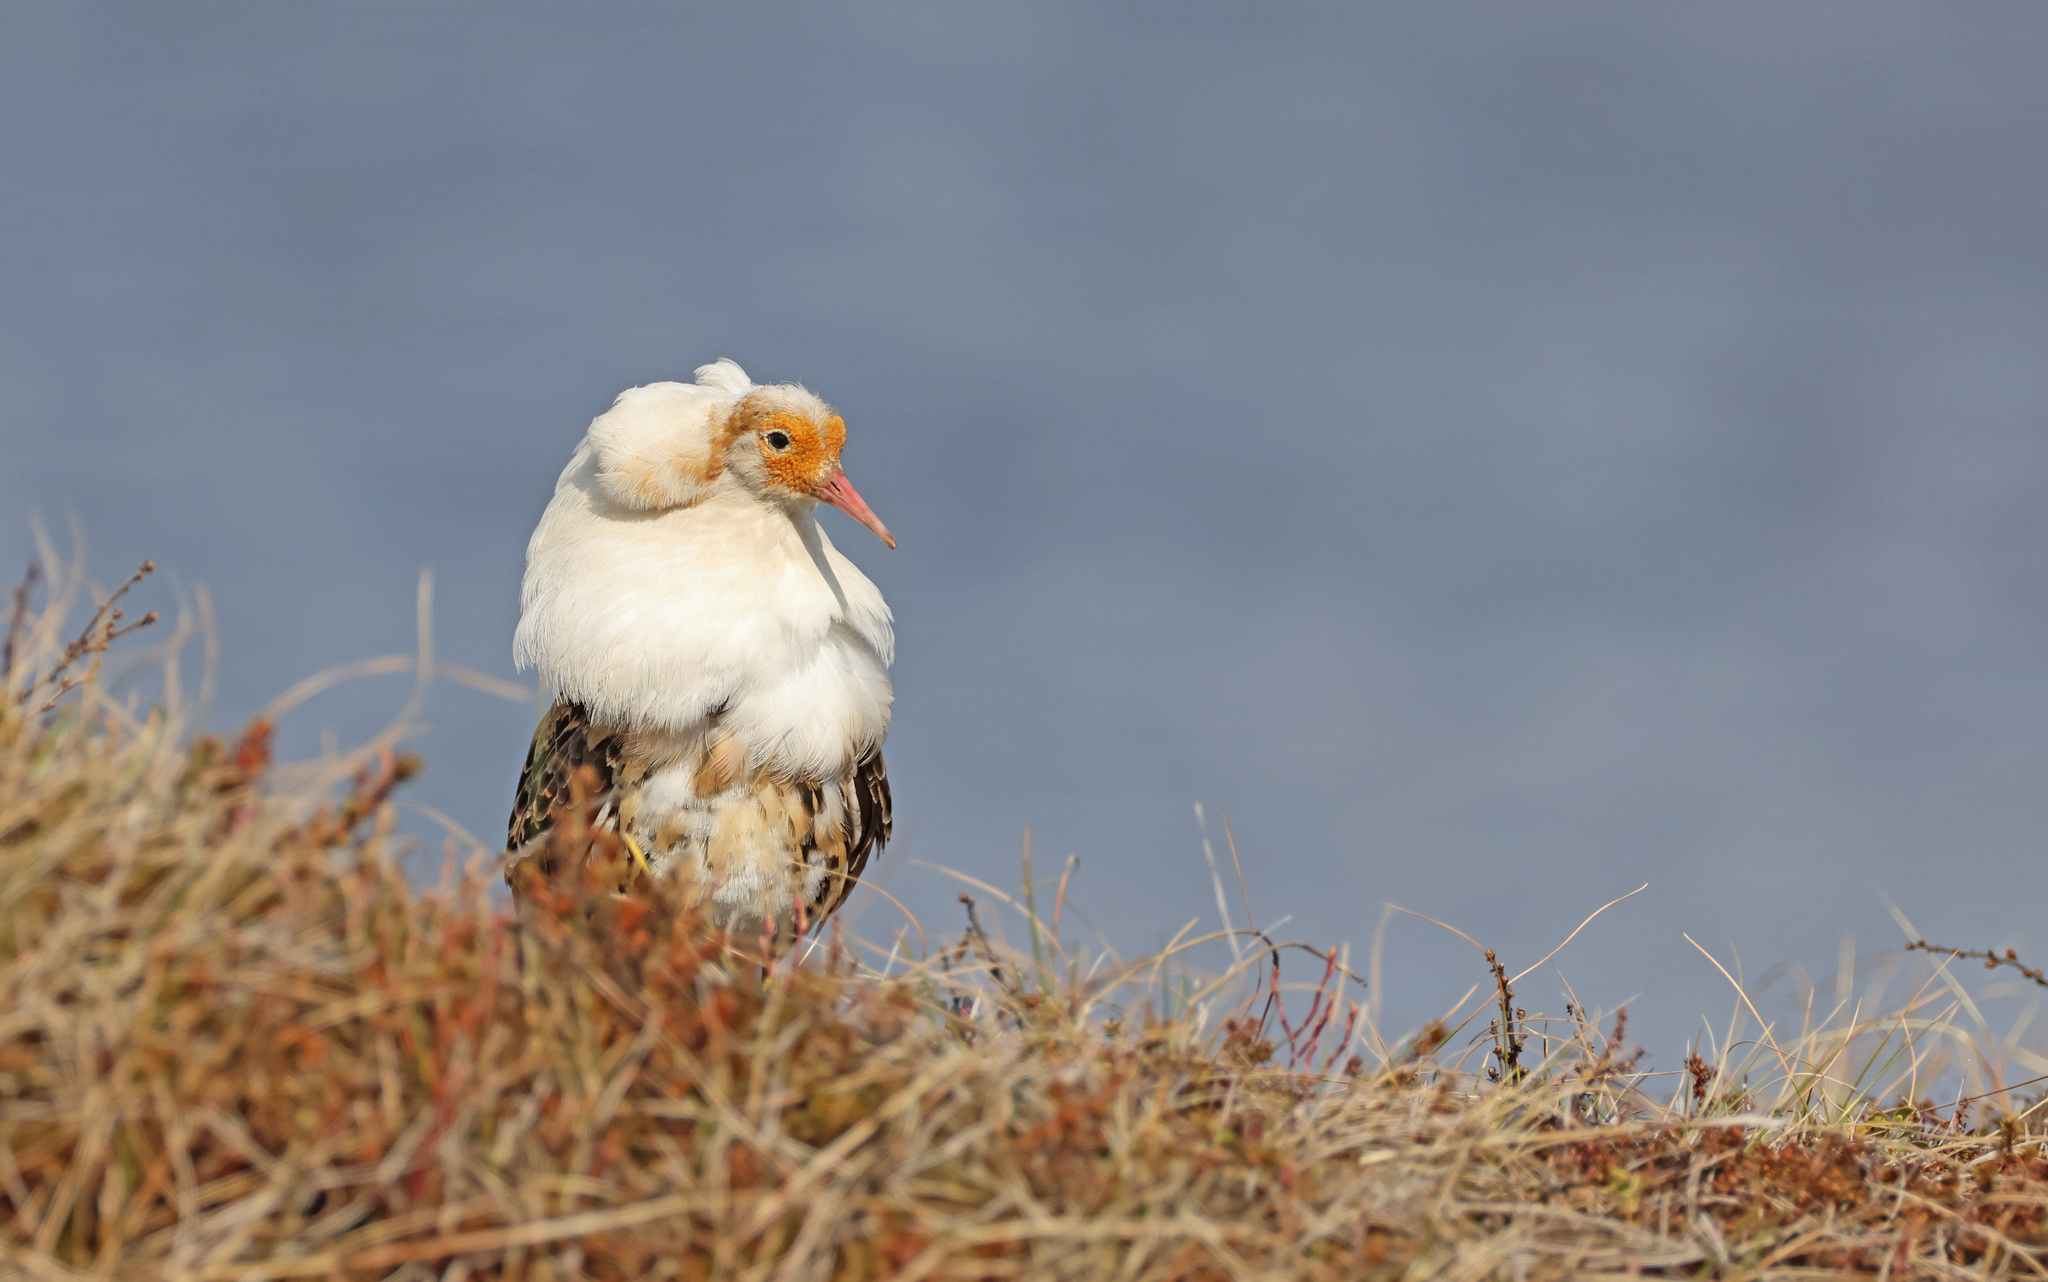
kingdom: Animalia
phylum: Chordata
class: Aves
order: Charadriiformes
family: Scolopacidae
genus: Calidris
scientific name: Calidris pugnax
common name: Ruff
